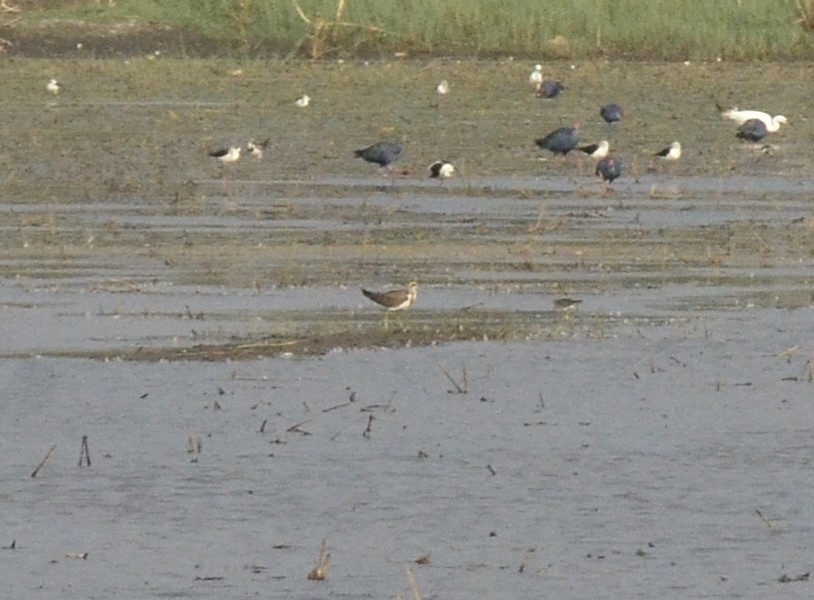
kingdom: Animalia
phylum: Chordata
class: Aves
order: Charadriiformes
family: Jacanidae
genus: Hydrophasianus
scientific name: Hydrophasianus chirurgus
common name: Pheasant-tailed jacana
